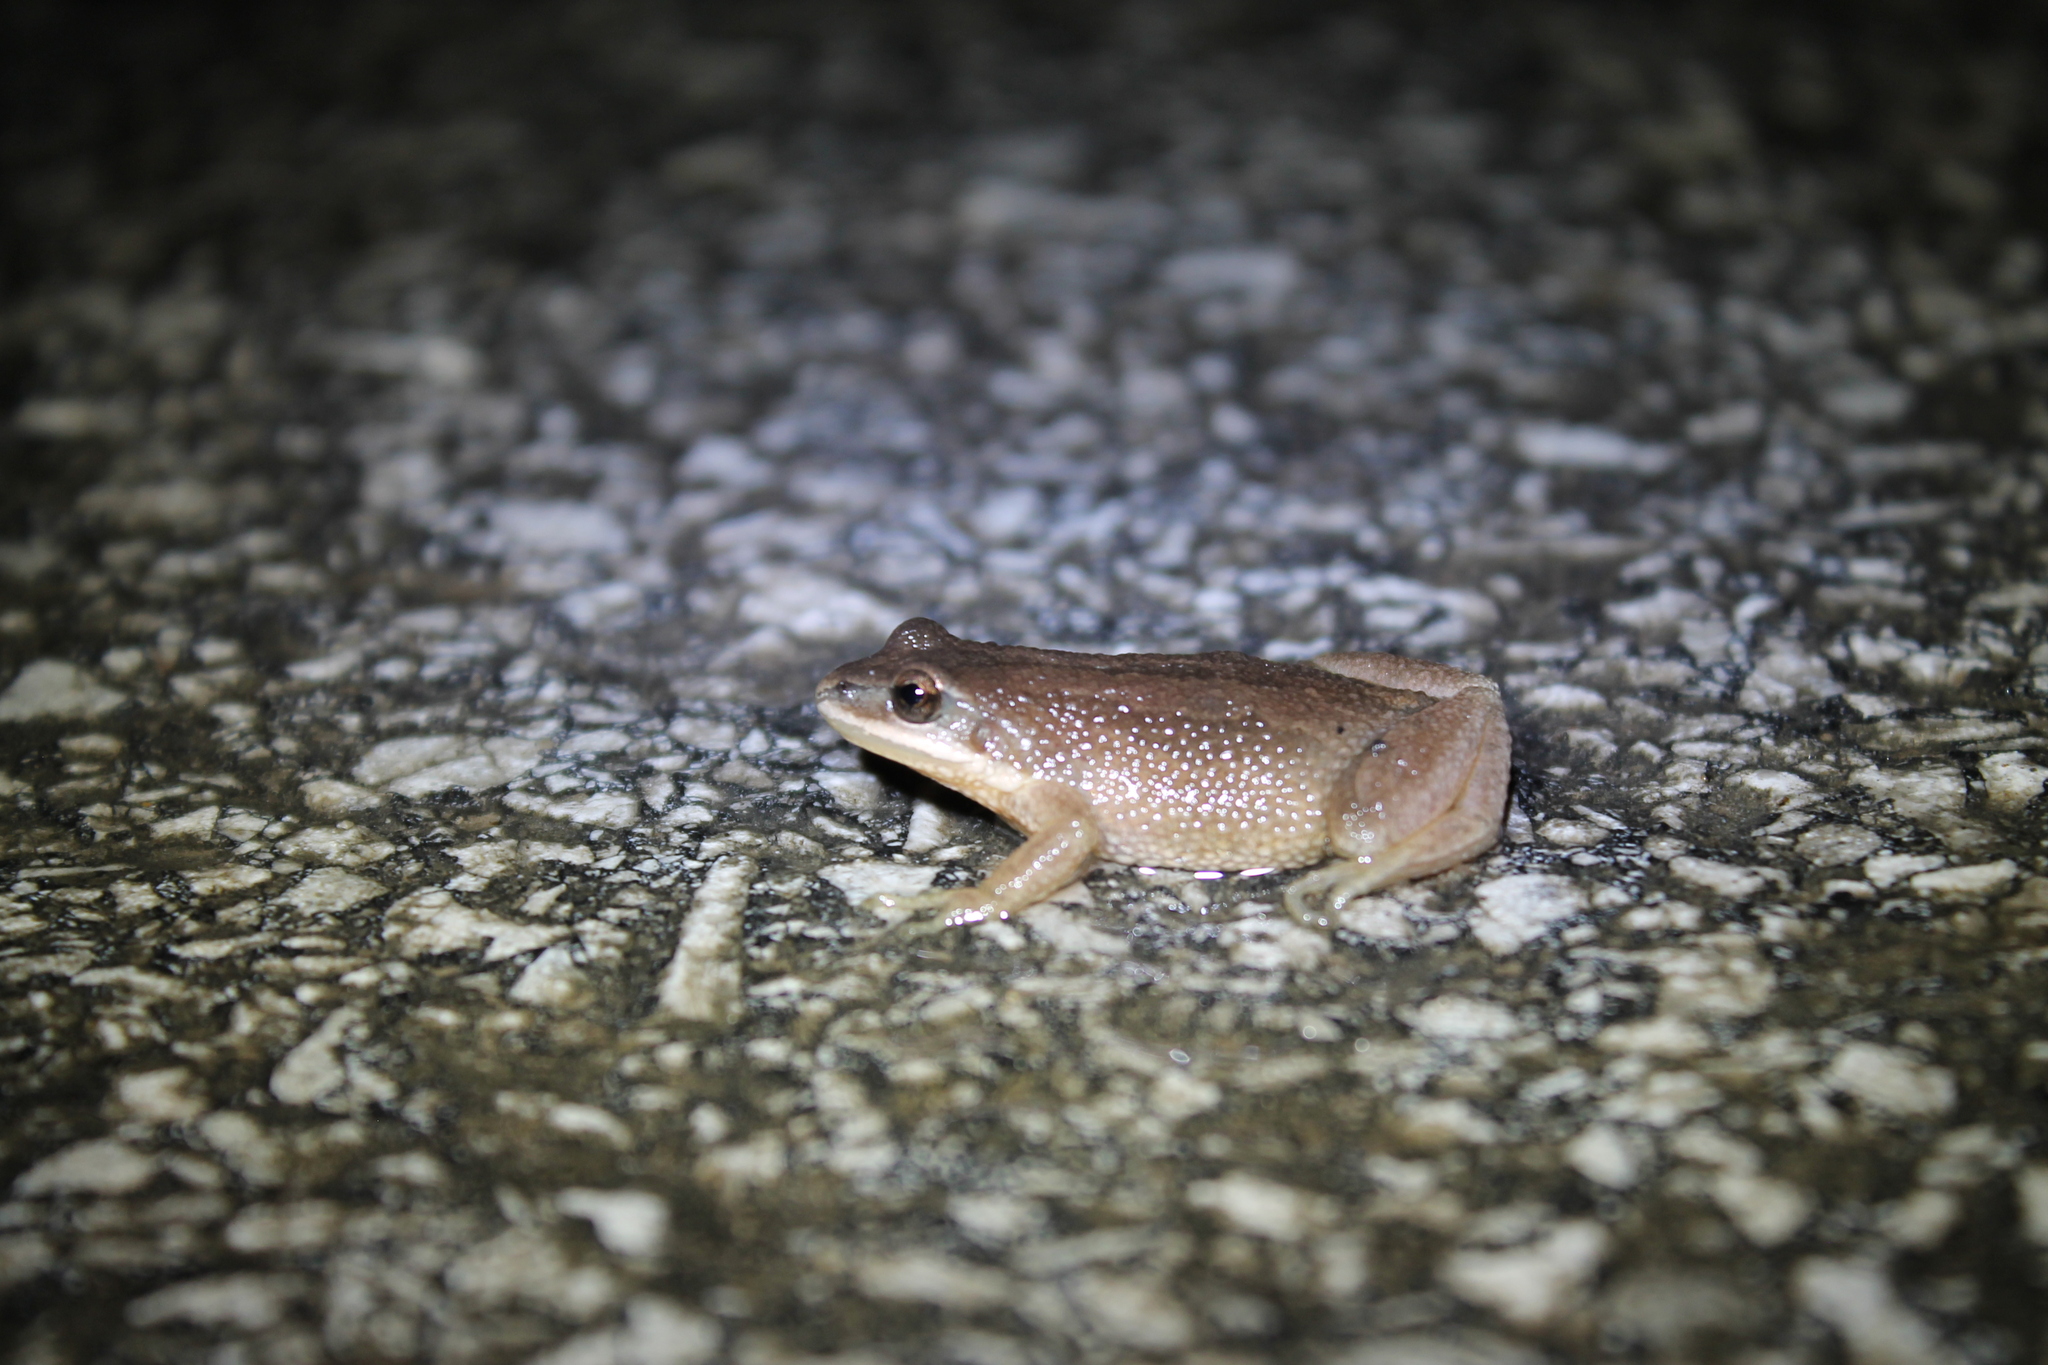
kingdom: Animalia
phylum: Chordata
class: Amphibia
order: Anura
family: Hylidae
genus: Pseudacris
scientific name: Pseudacris feriarum
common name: Upland chorus frog
